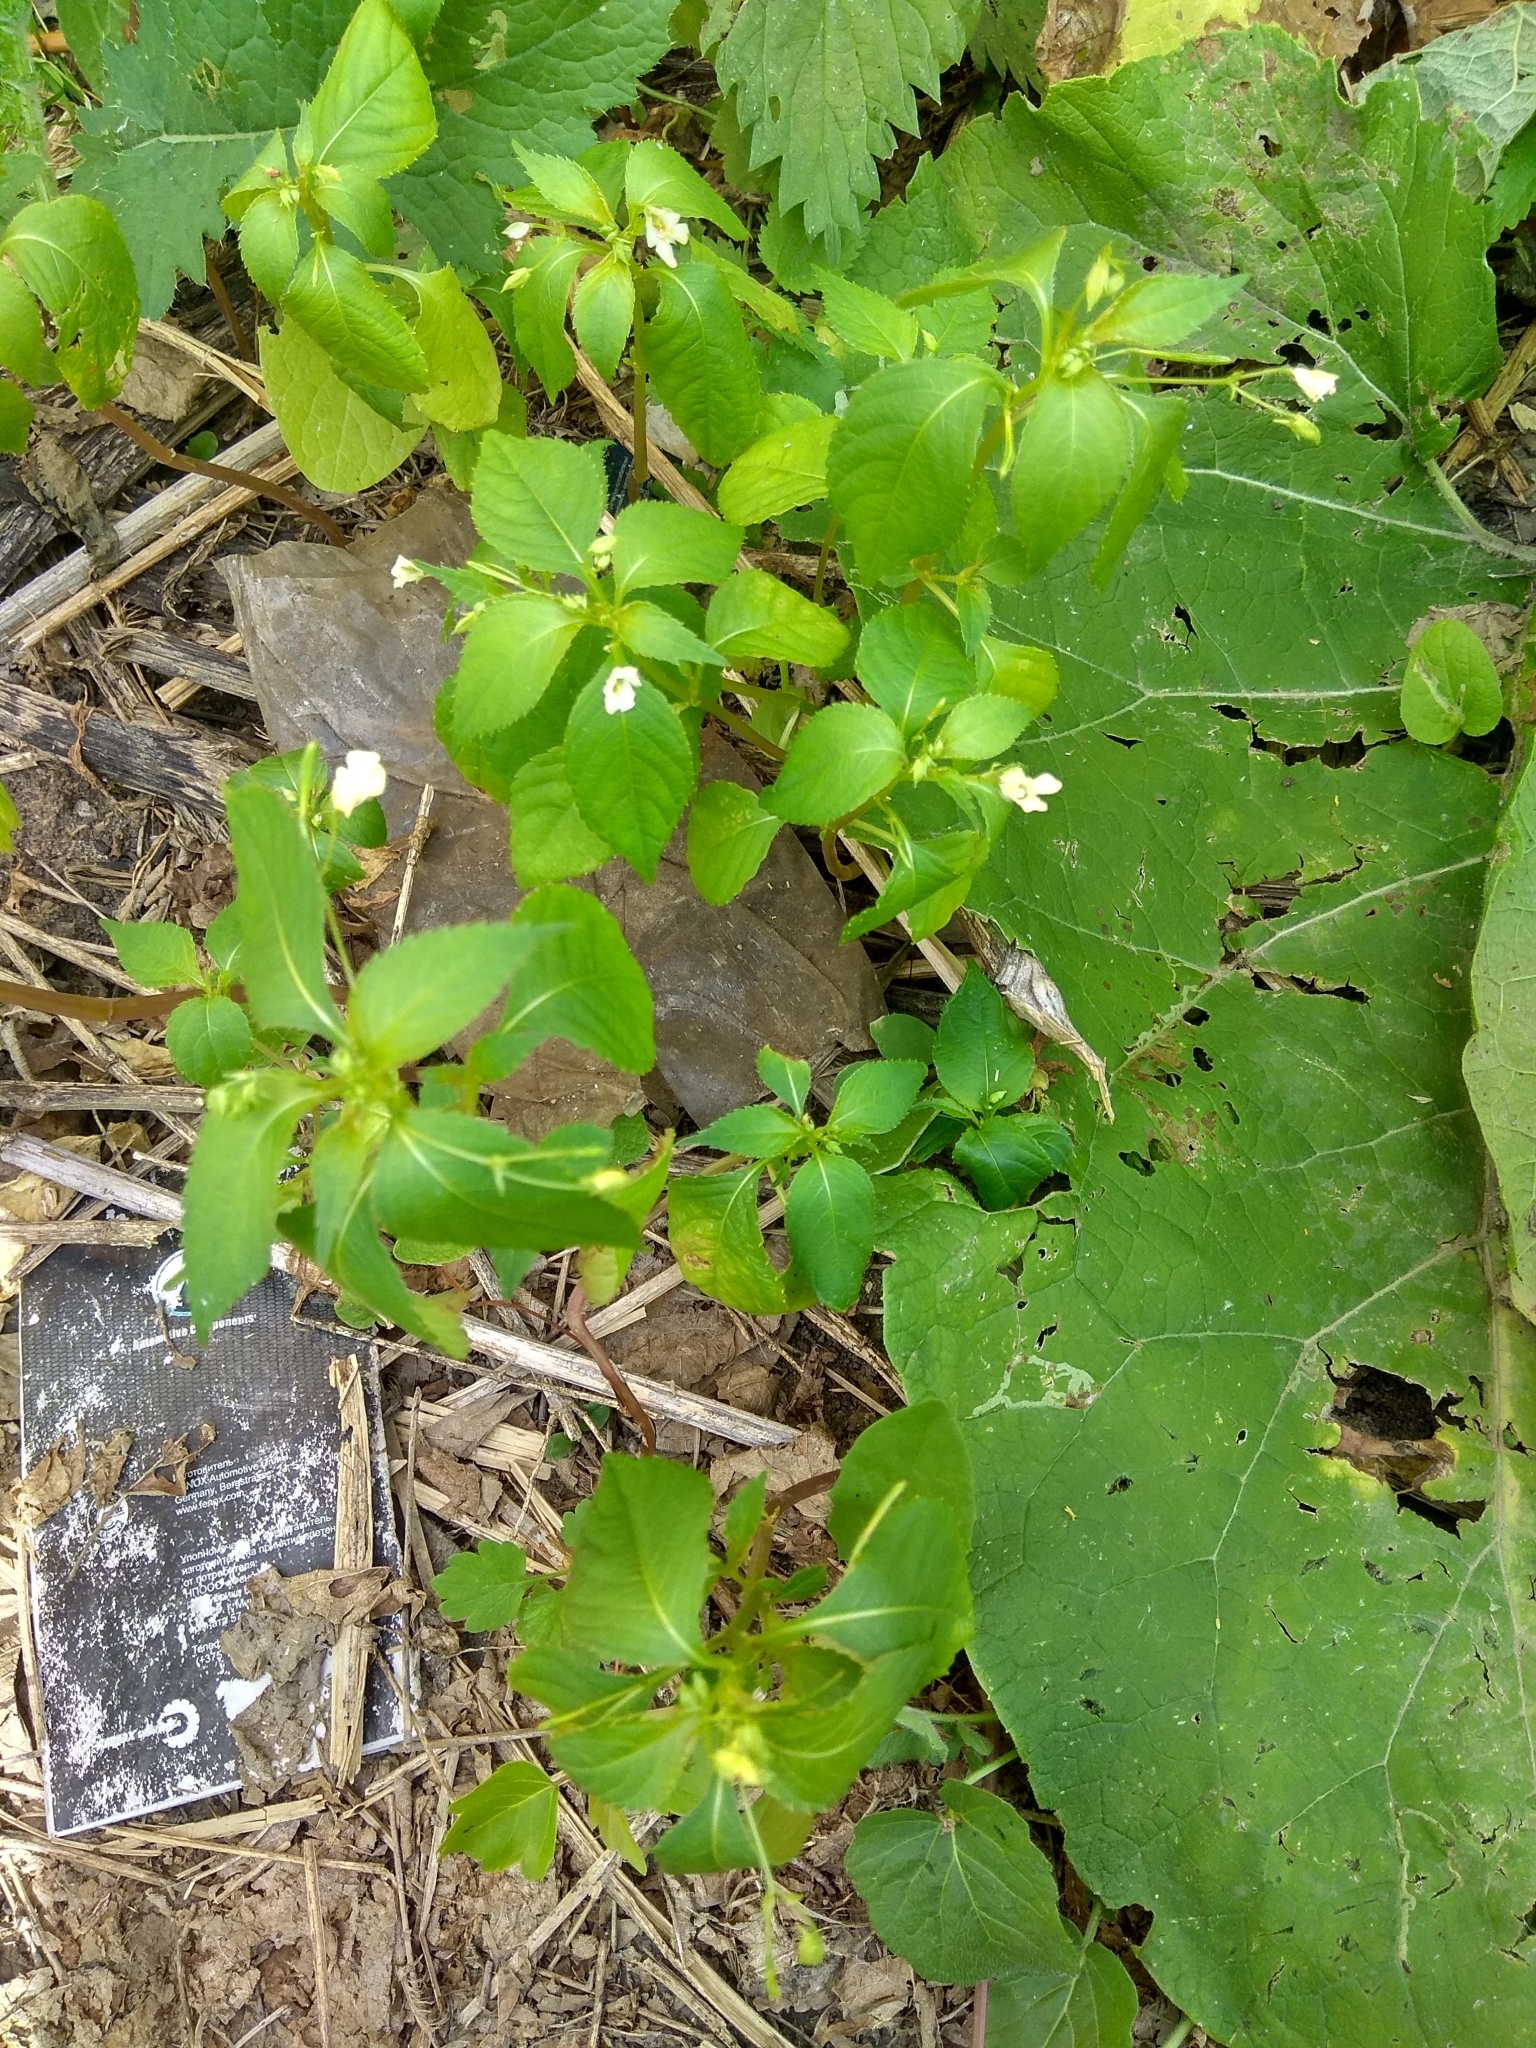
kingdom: Plantae
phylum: Tracheophyta
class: Magnoliopsida
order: Ericales
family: Balsaminaceae
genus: Impatiens
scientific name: Impatiens parviflora
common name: Small balsam
